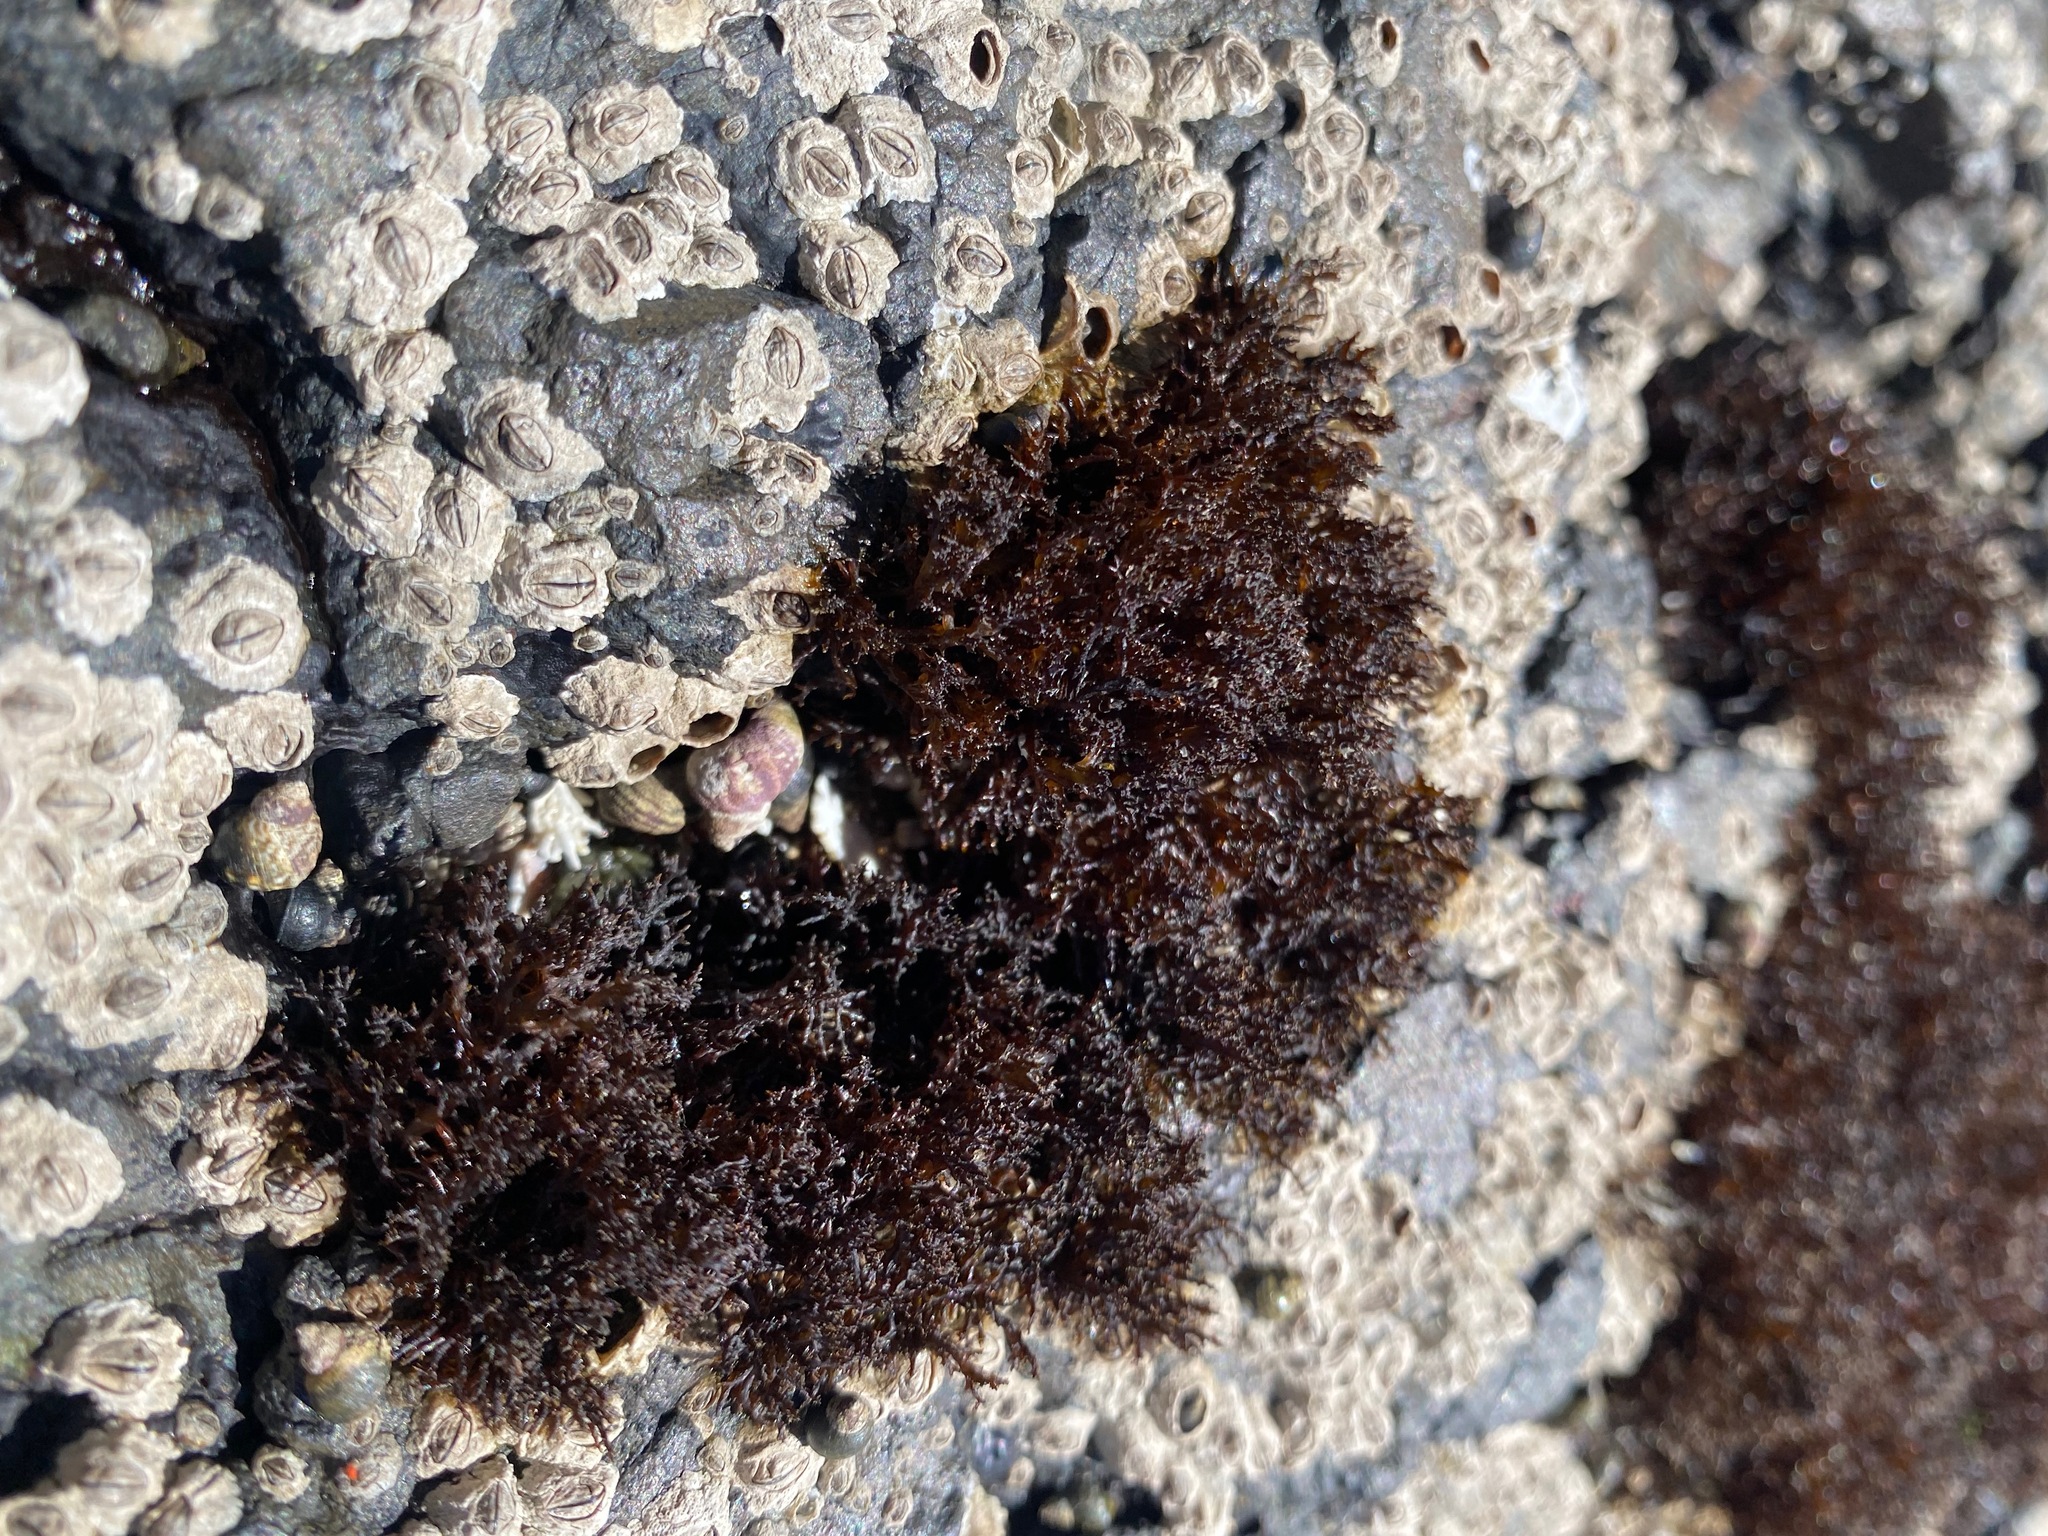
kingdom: Plantae
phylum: Rhodophyta
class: Florideophyceae
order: Gigartinales
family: Endocladiaceae
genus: Endocladia
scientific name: Endocladia muricata
